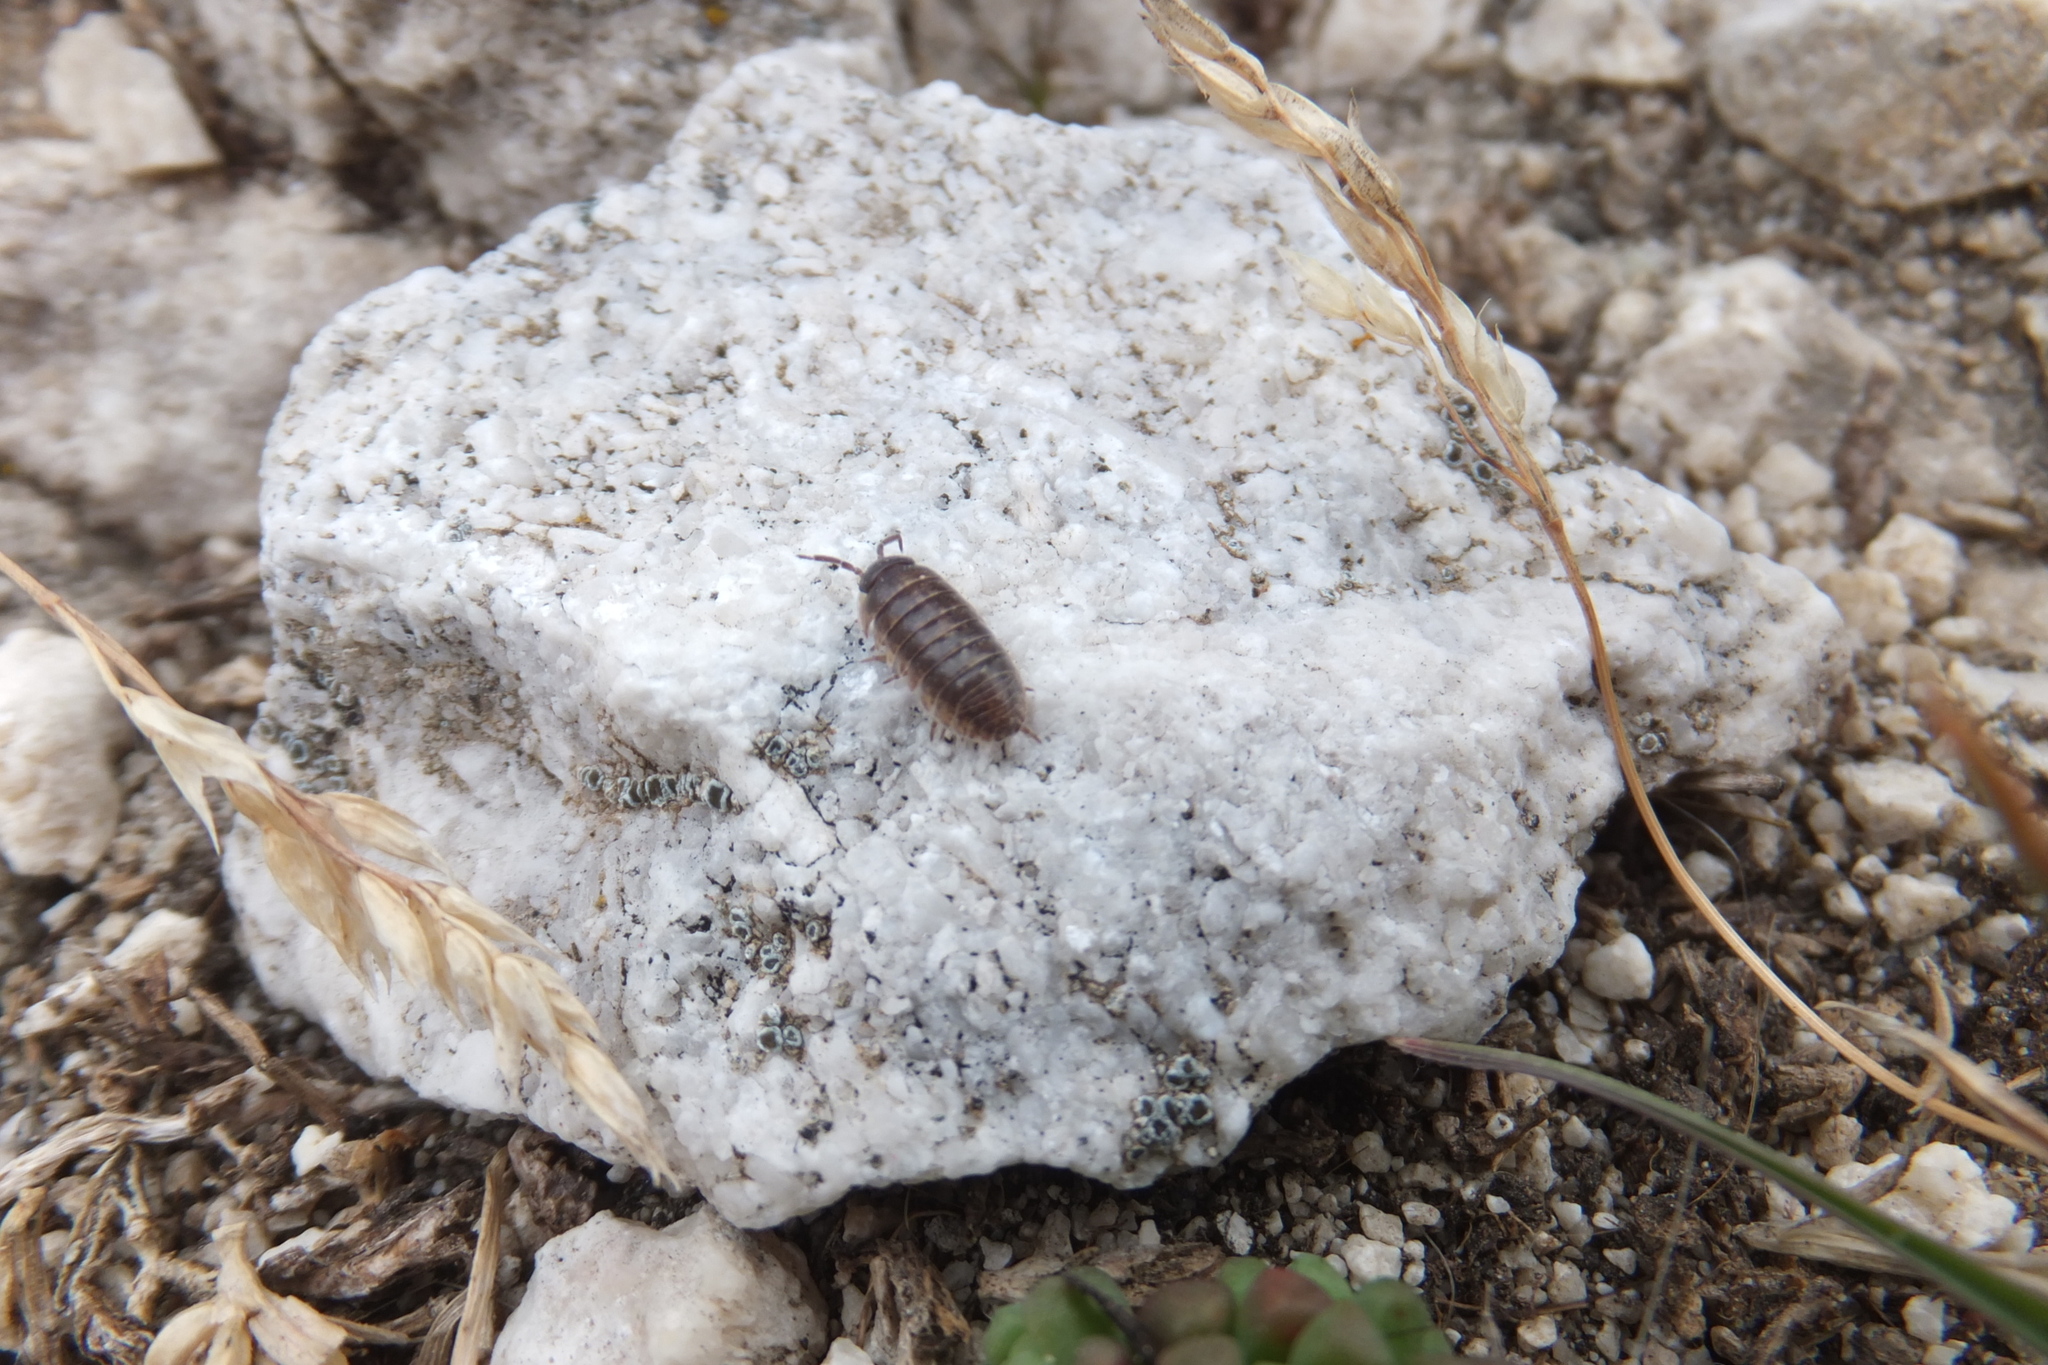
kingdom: Animalia
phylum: Arthropoda
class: Malacostraca
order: Isopoda
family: Armadillidiidae
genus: Armadillidium
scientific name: Armadillidium vulgare
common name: Common pill woodlouse
